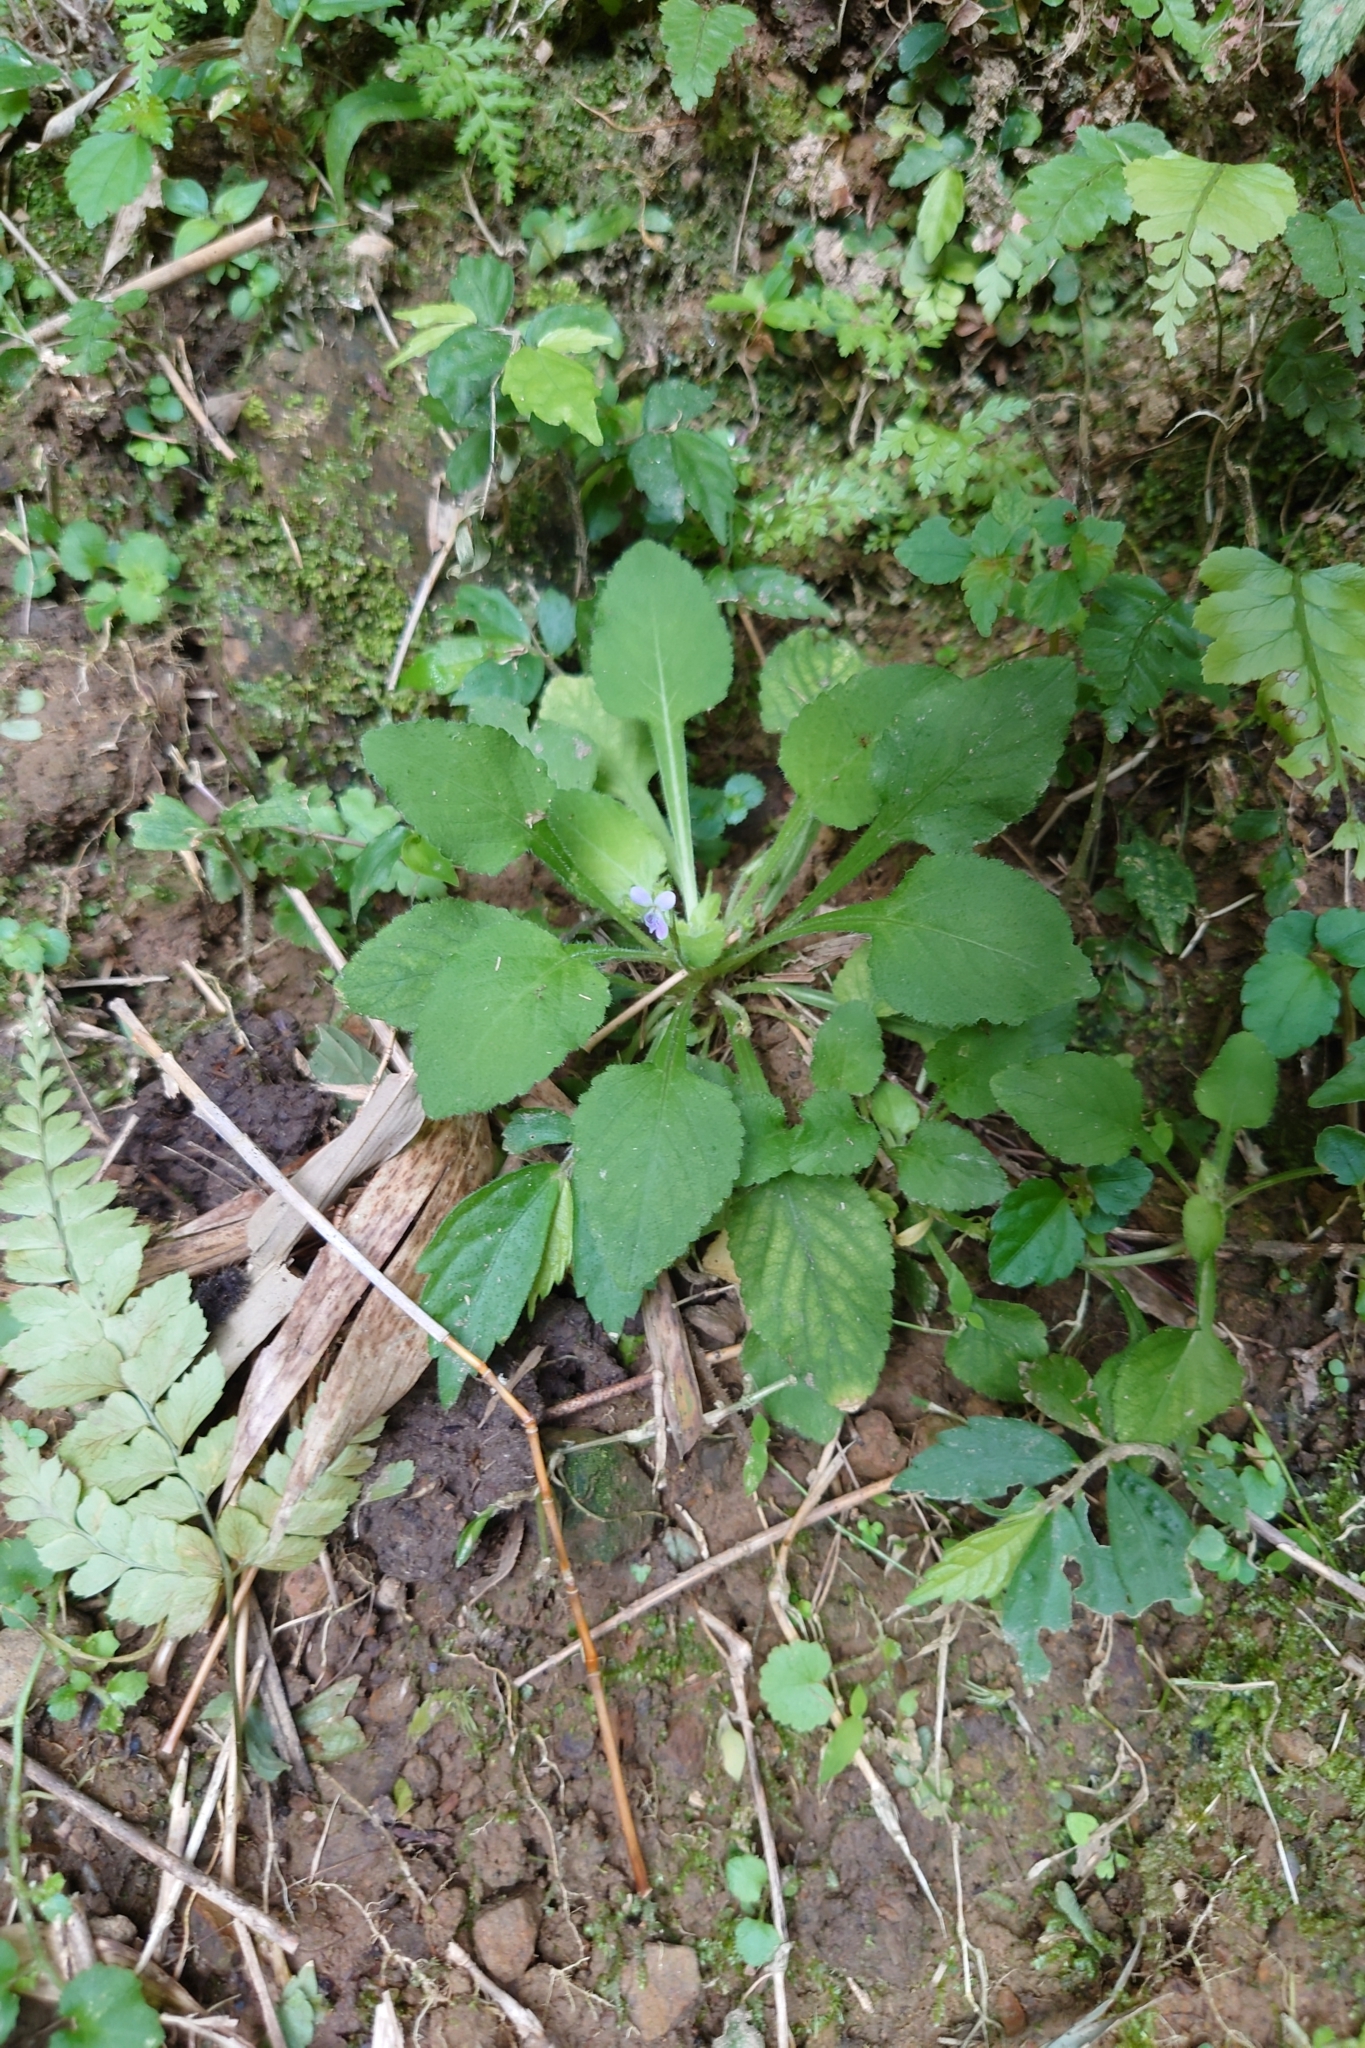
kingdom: Plantae
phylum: Tracheophyta
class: Magnoliopsida
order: Malpighiales
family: Violaceae
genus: Viola
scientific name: Viola diffusa
